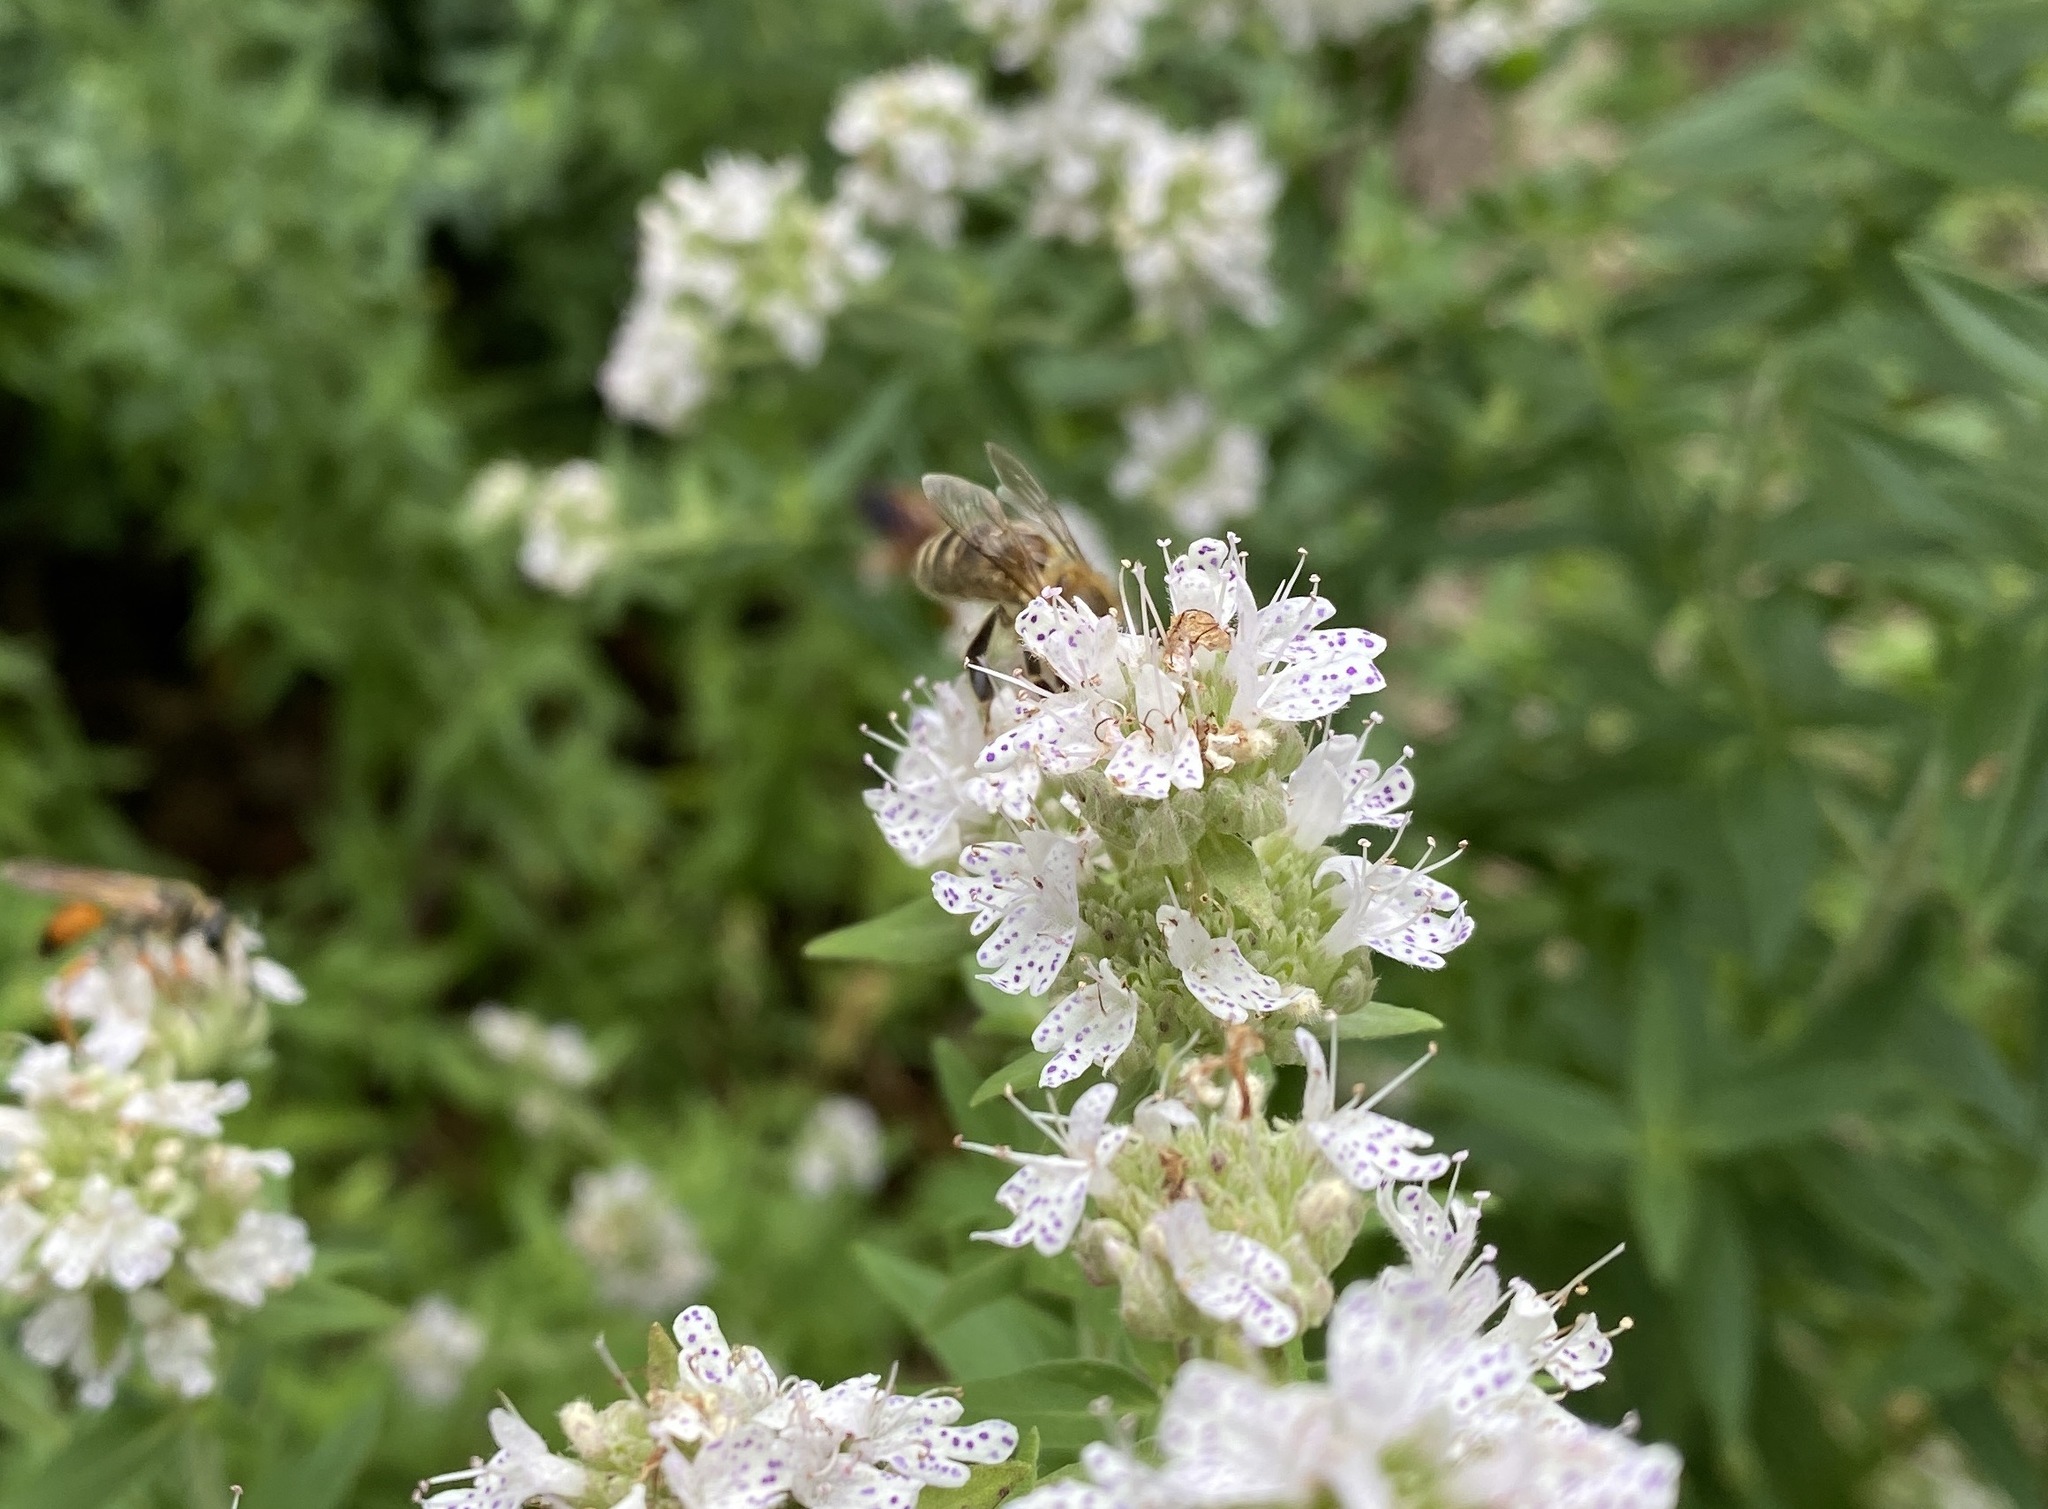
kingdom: Animalia
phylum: Arthropoda
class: Insecta
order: Hymenoptera
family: Apidae
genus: Apis
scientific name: Apis mellifera
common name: Honey bee
